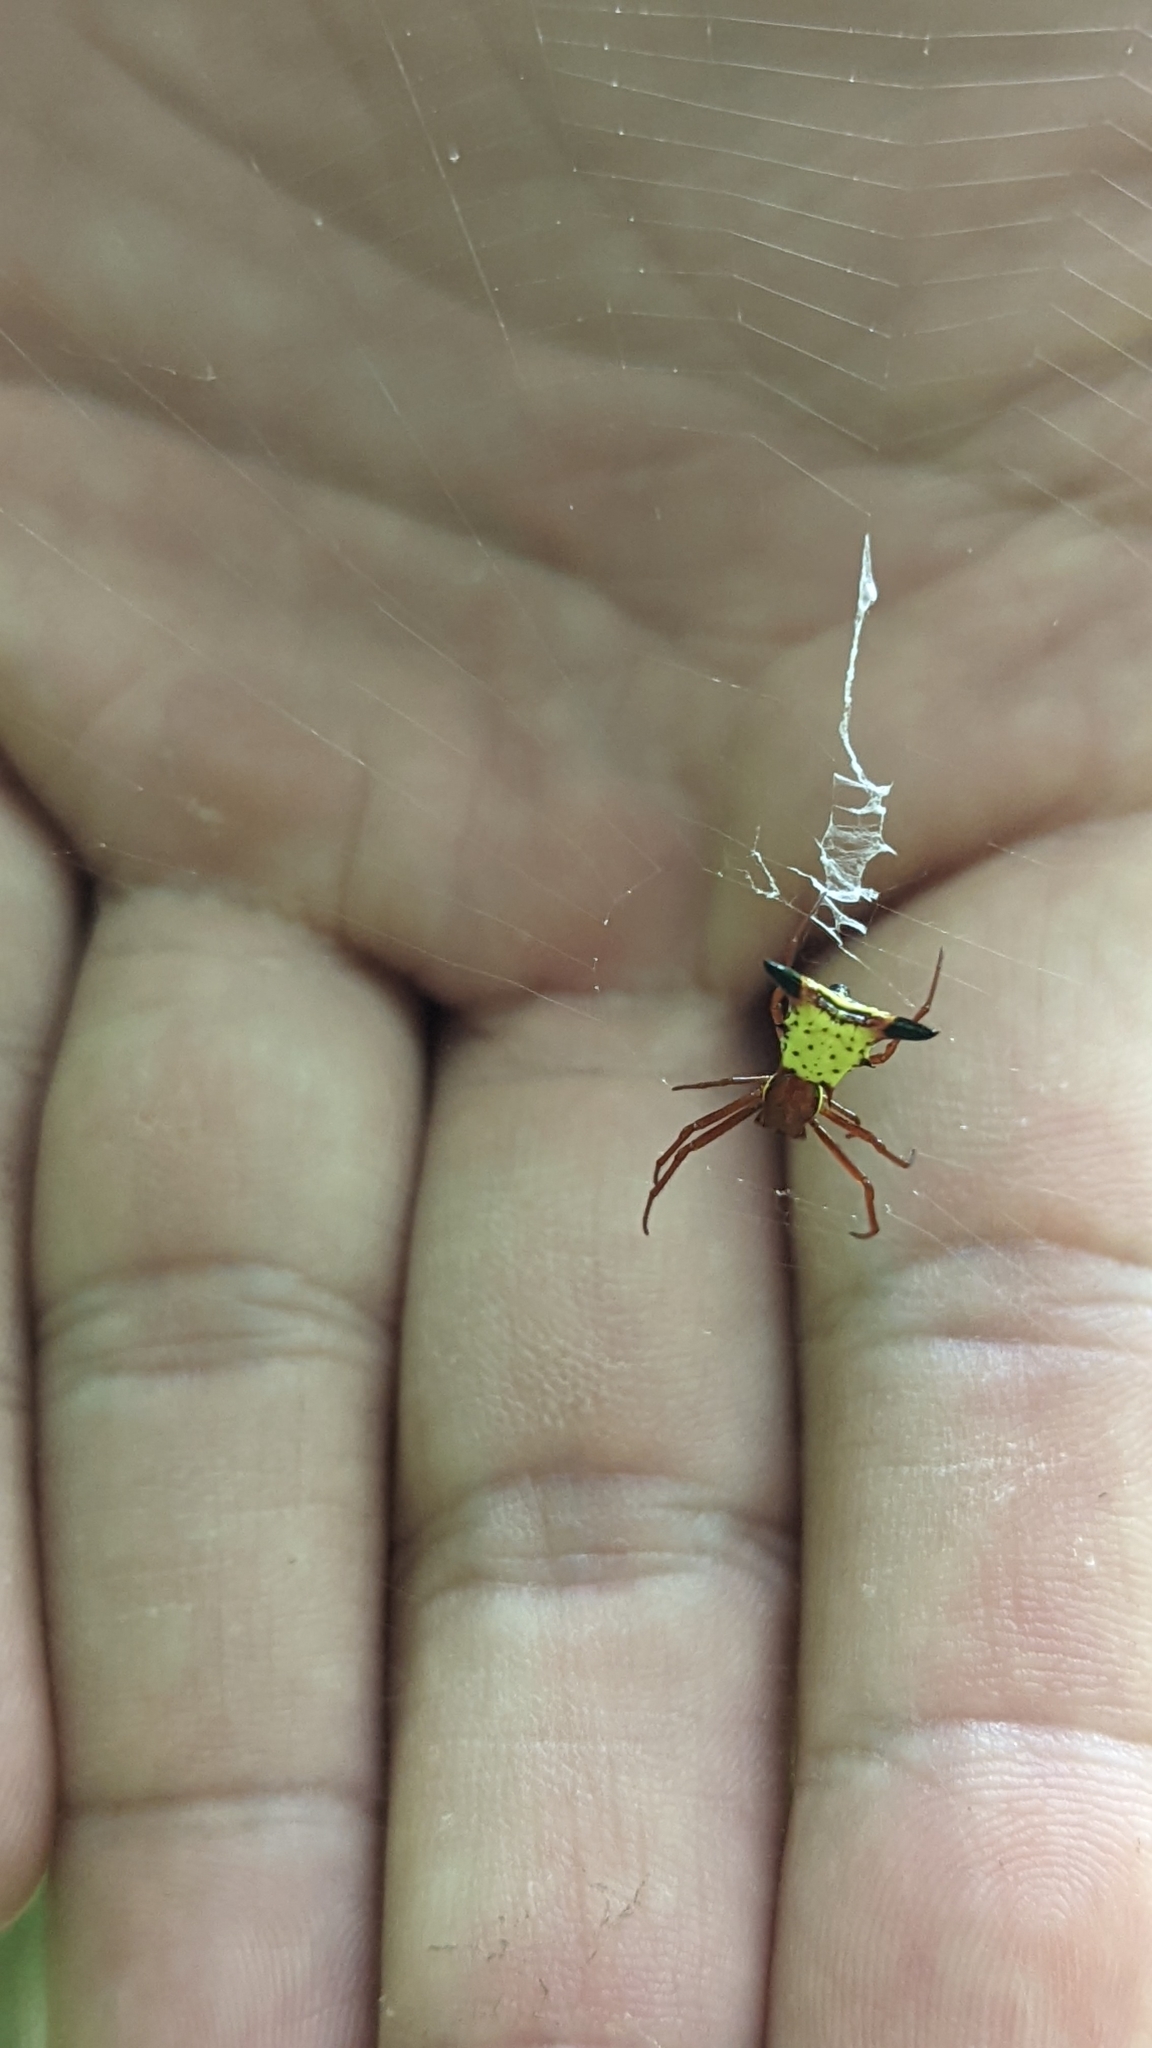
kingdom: Animalia
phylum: Arthropoda
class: Arachnida
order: Araneae
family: Araneidae
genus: Micrathena
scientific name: Micrathena sagittata
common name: Orb weavers
